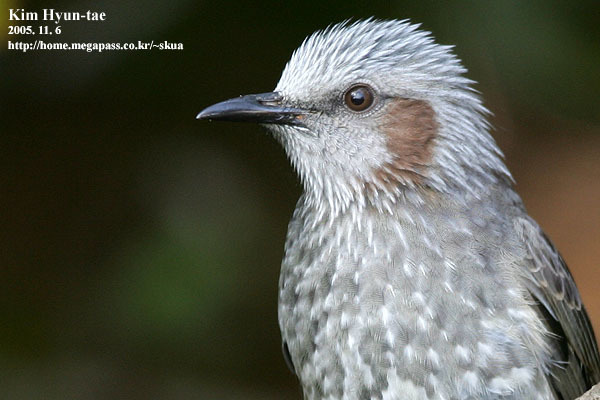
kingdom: Animalia
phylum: Chordata
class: Aves
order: Passeriformes
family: Pycnonotidae
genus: Hypsipetes
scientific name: Hypsipetes amaurotis
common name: Brown-eared bulbul
